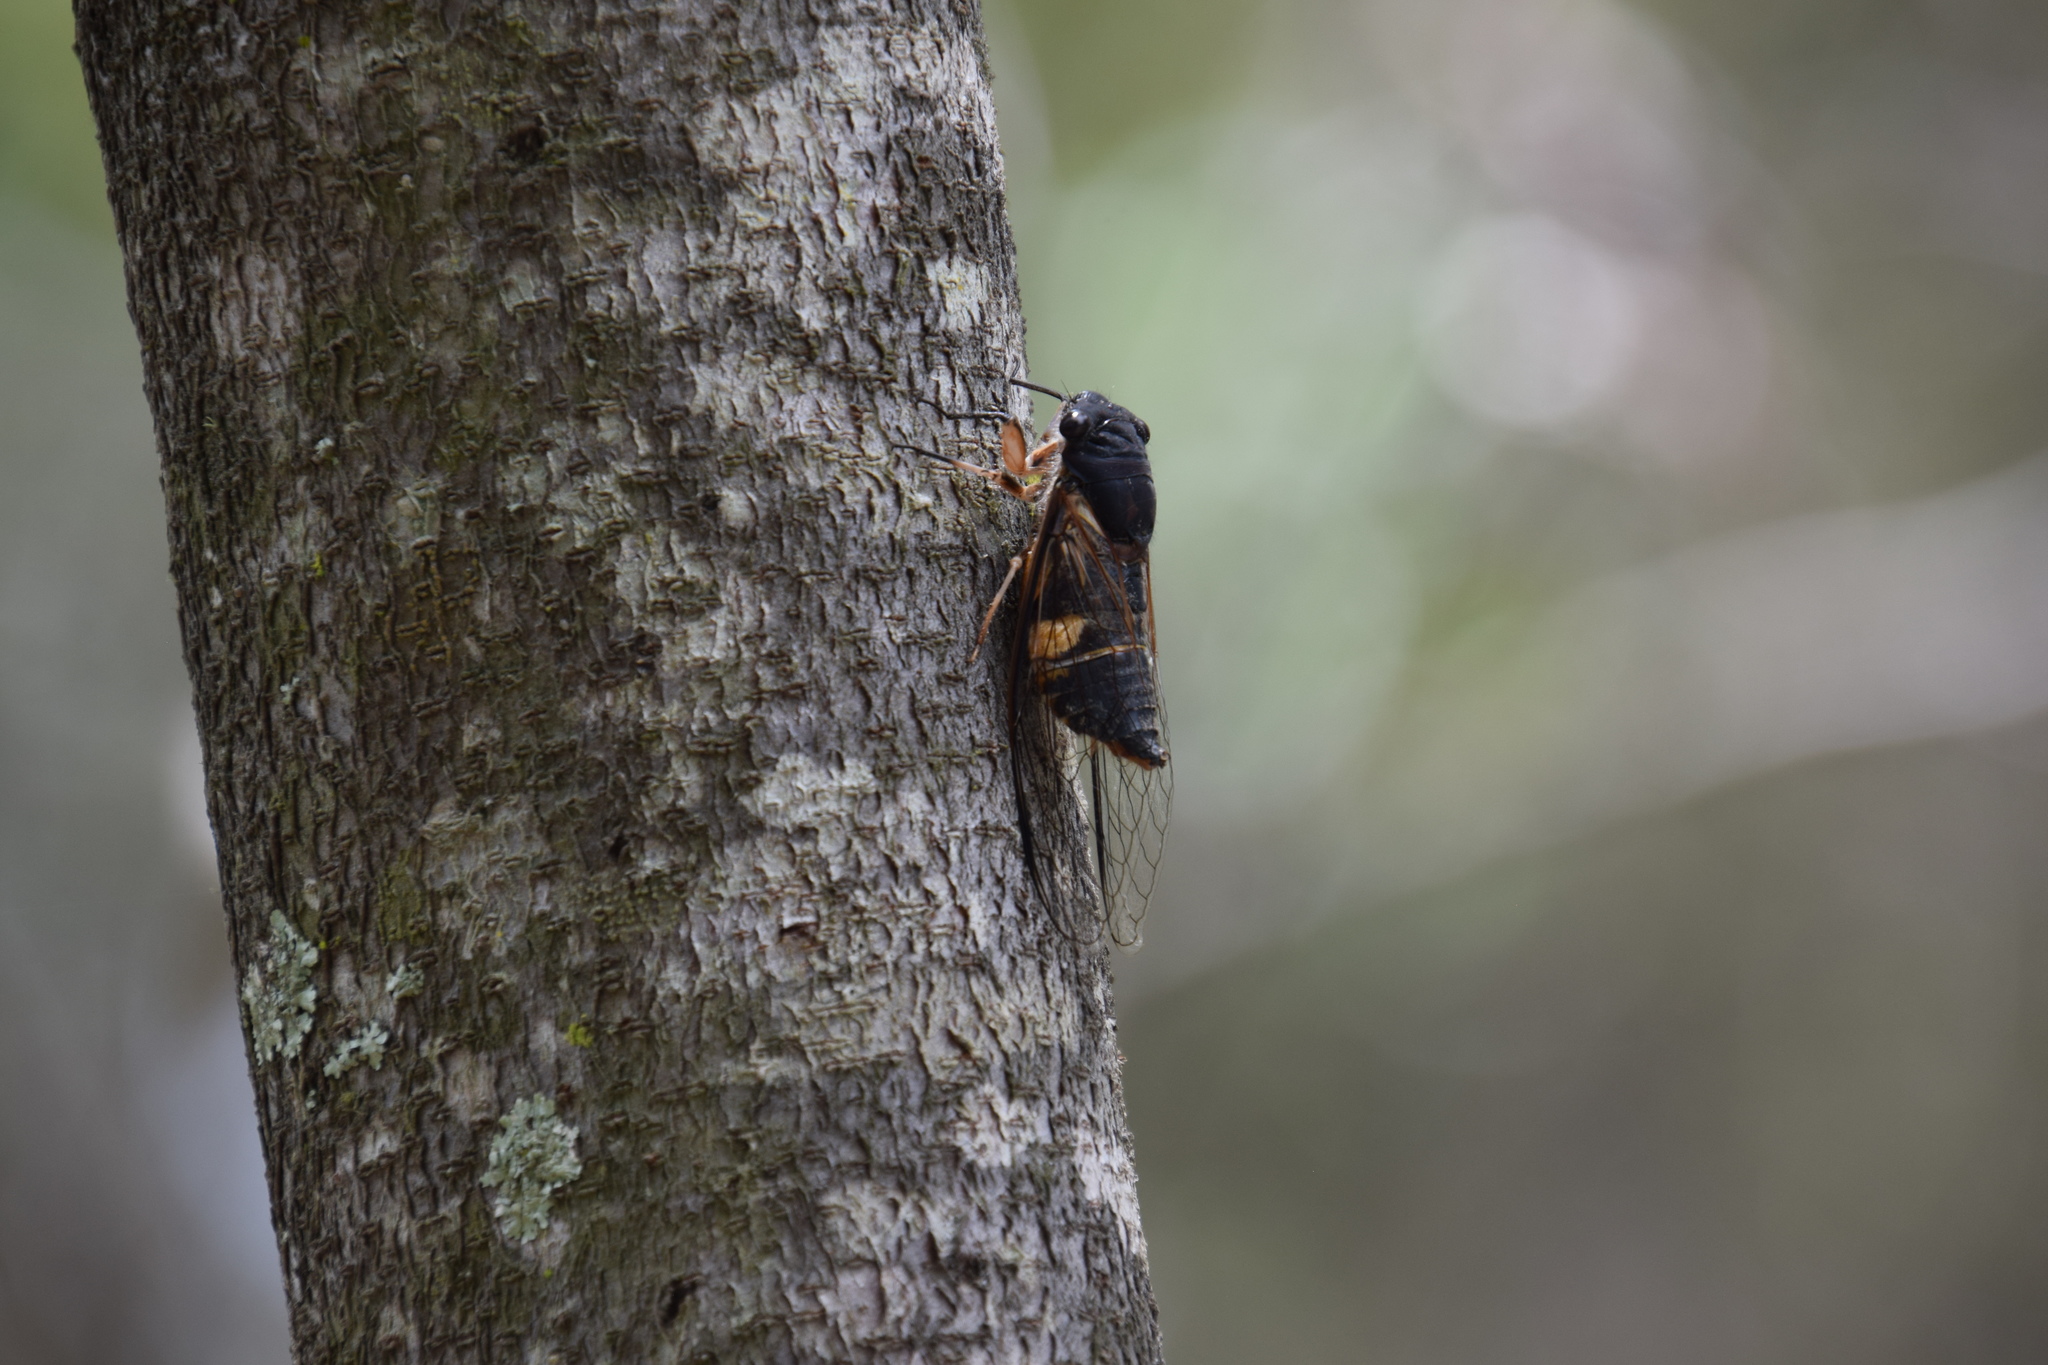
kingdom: Animalia
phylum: Arthropoda
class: Insecta
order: Hemiptera
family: Cicadidae
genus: Psaltoda
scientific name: Psaltoda harrisii
